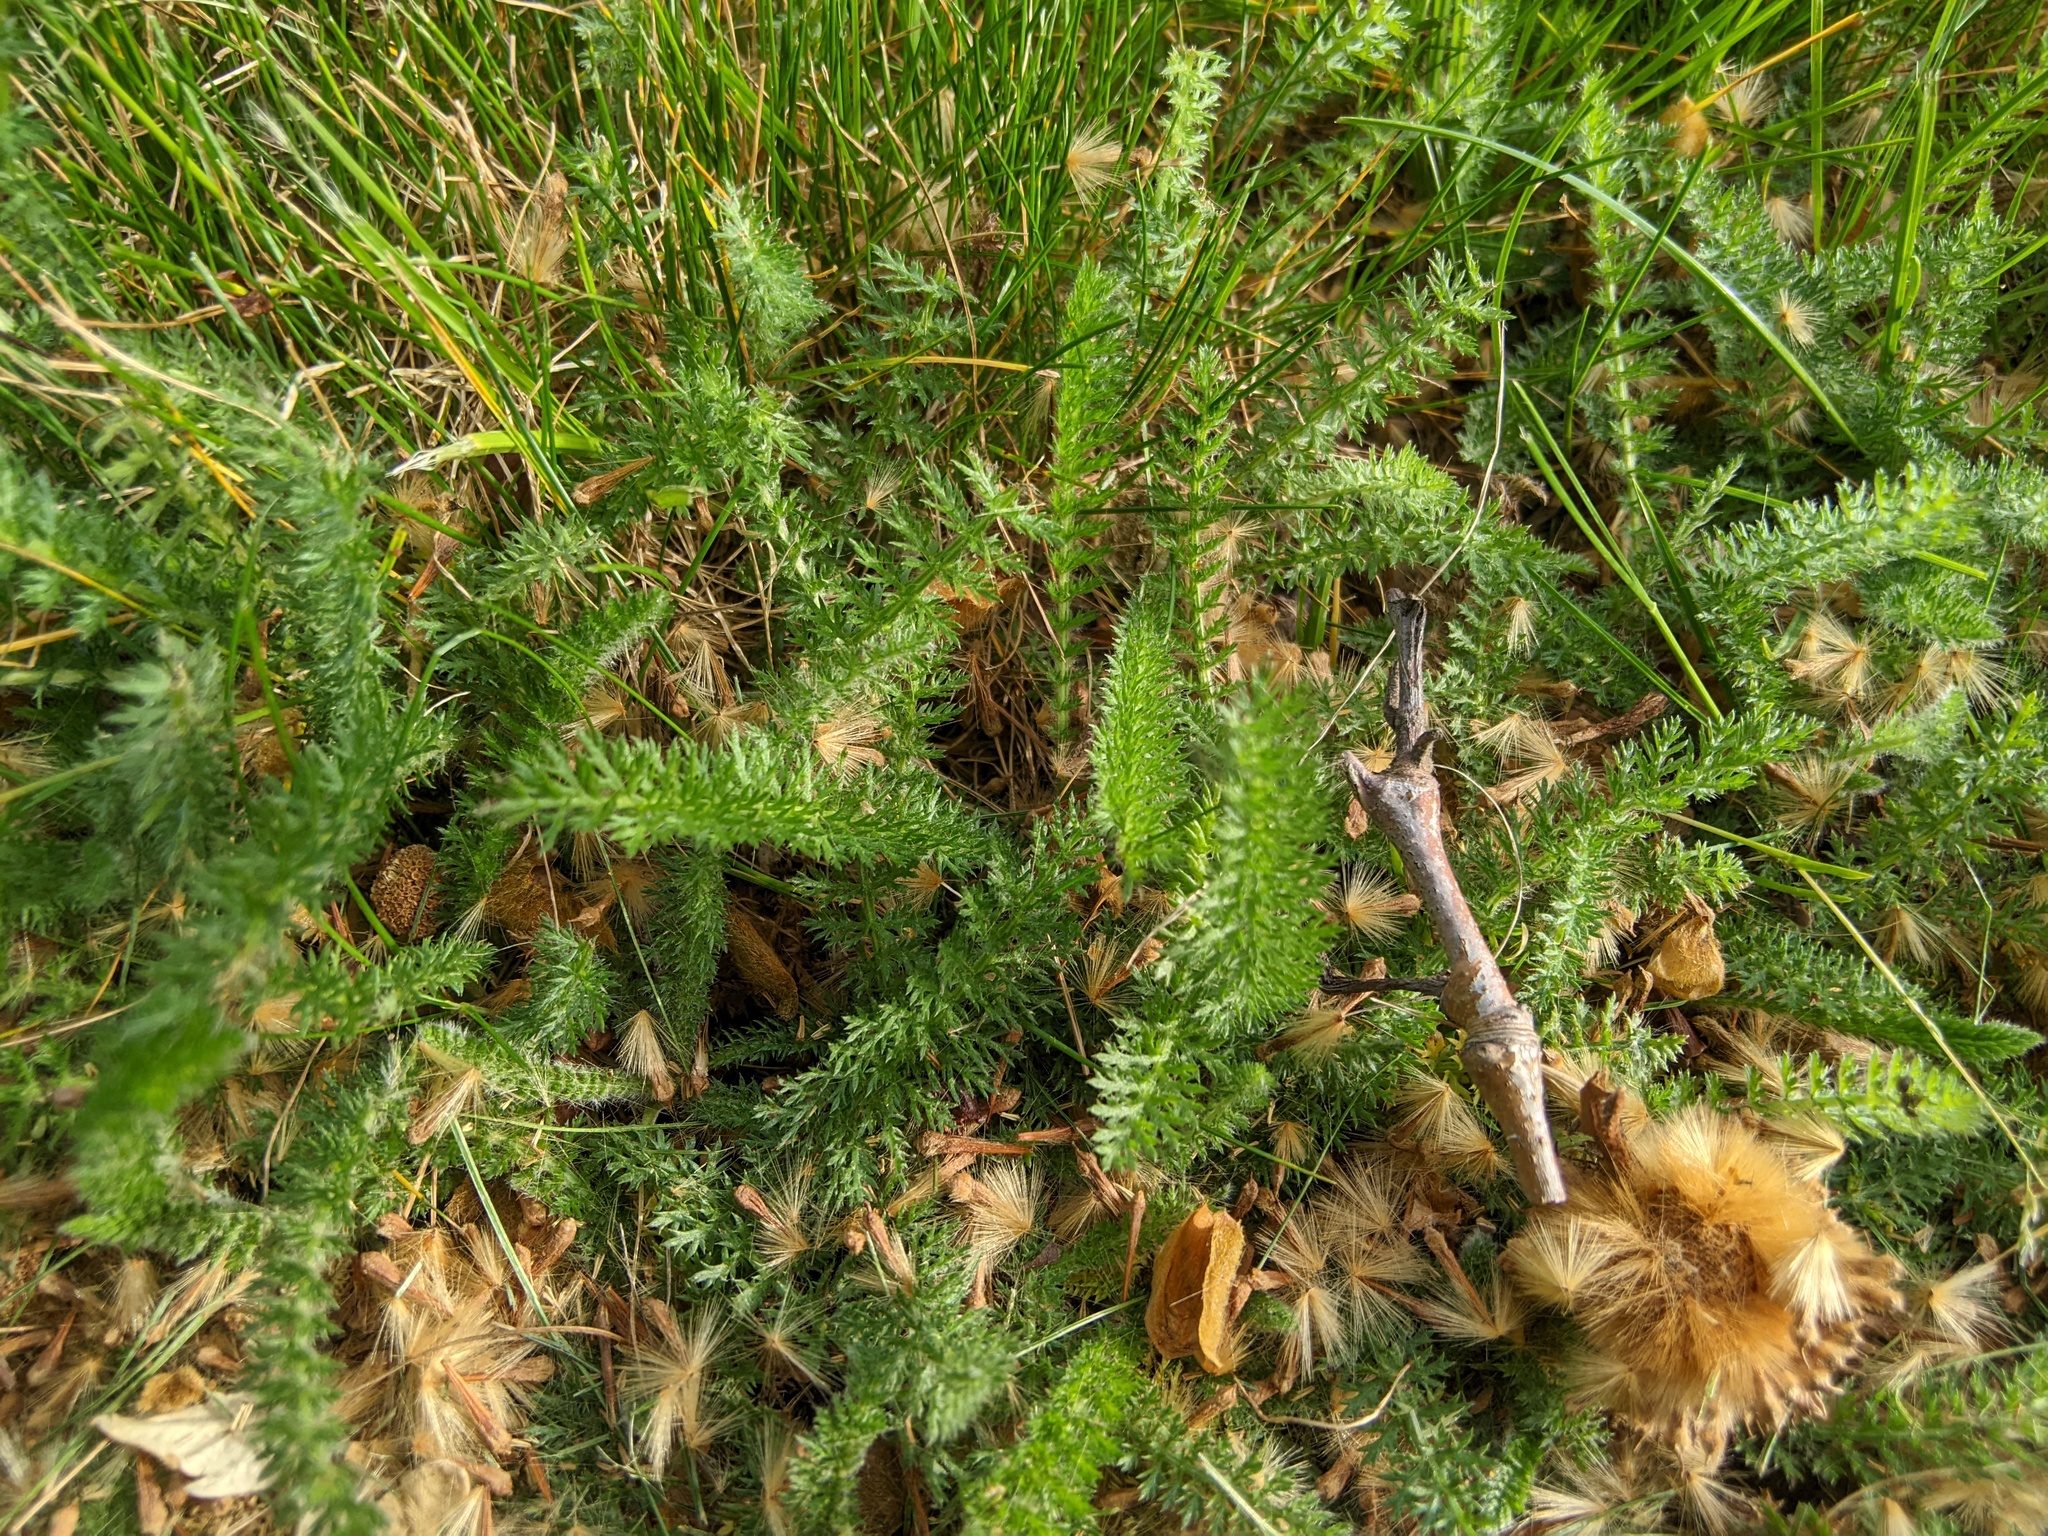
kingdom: Plantae
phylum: Tracheophyta
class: Magnoliopsida
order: Asterales
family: Asteraceae
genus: Achillea
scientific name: Achillea millefolium
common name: Yarrow
